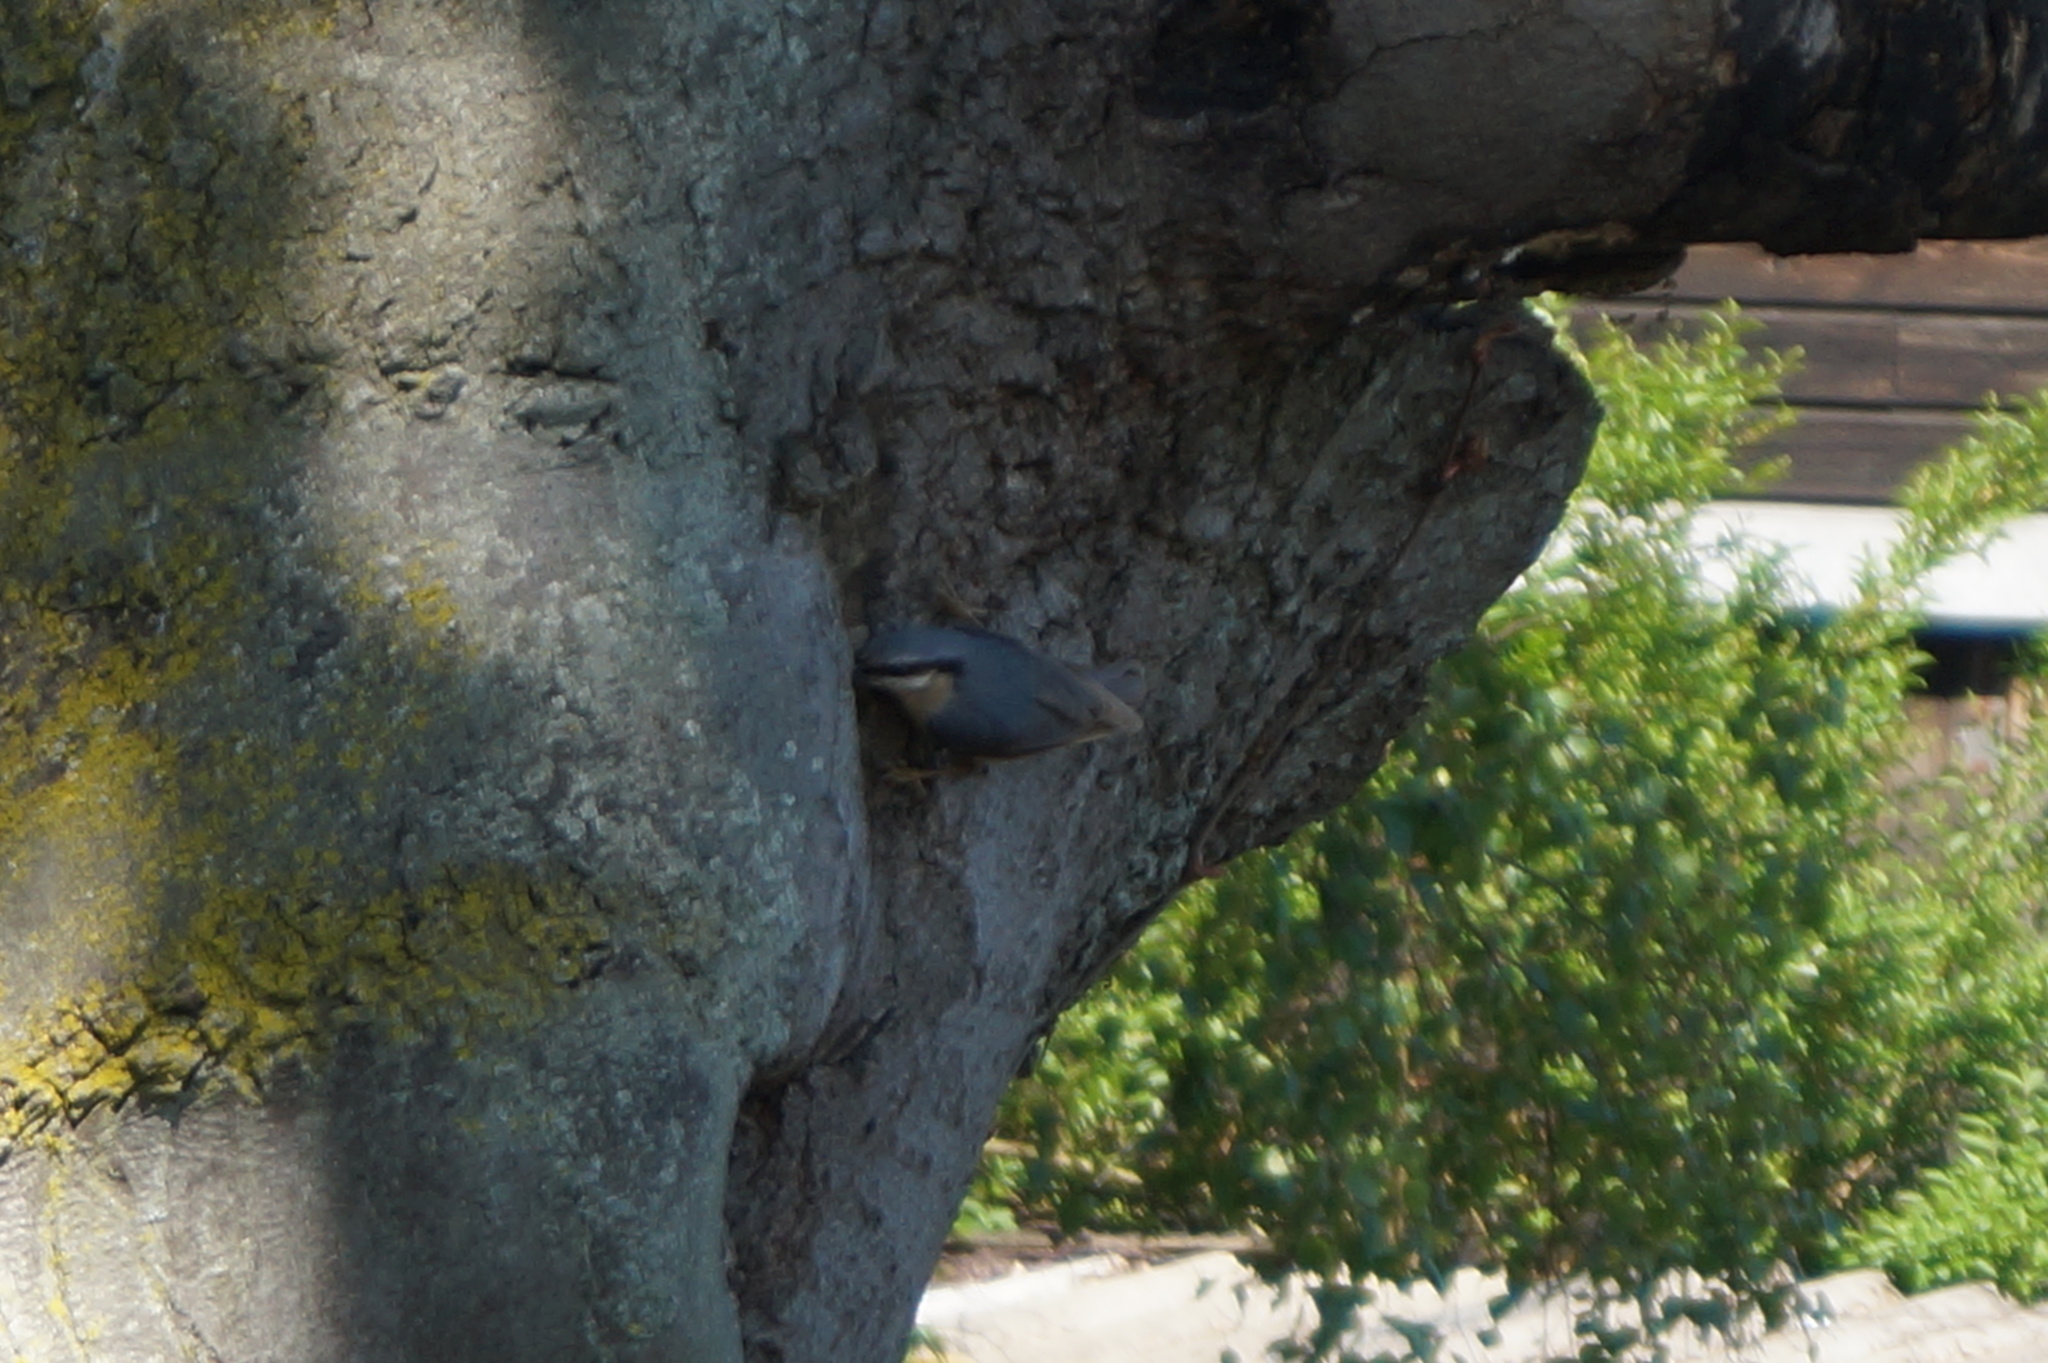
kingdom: Animalia
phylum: Chordata
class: Aves
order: Passeriformes
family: Sittidae
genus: Sitta
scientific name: Sitta europaea
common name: Eurasian nuthatch
